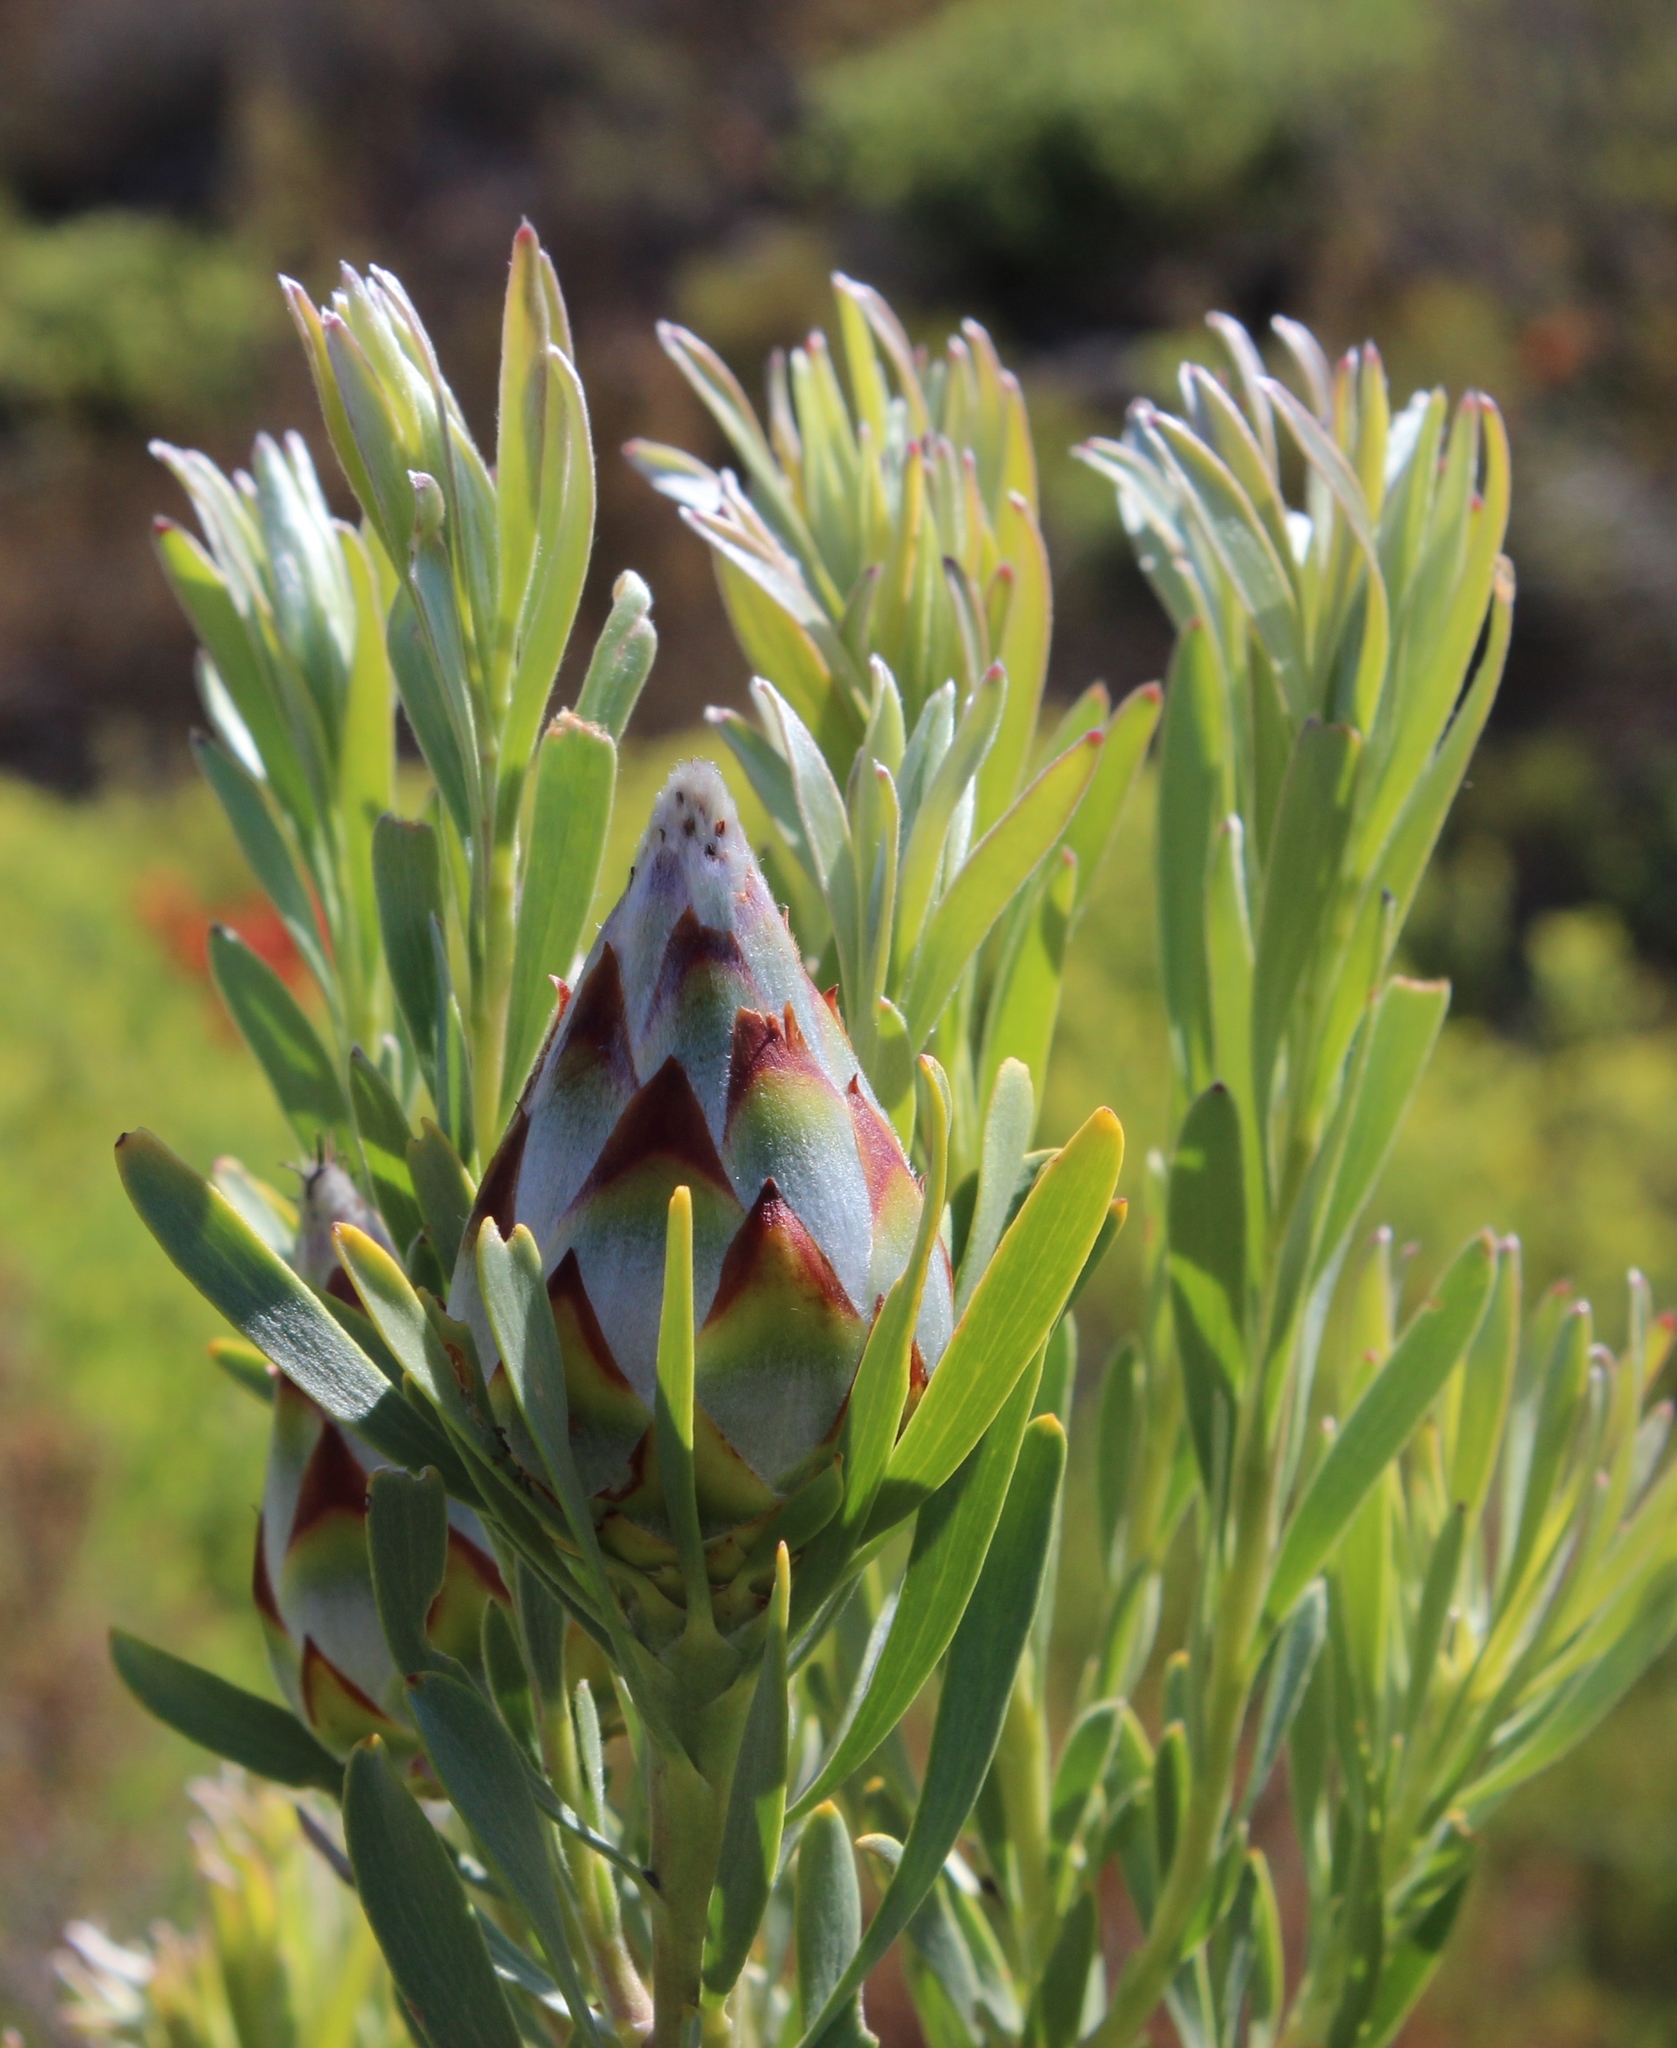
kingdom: Plantae
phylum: Tracheophyta
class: Magnoliopsida
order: Proteales
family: Proteaceae
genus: Leucadendron
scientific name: Leucadendron rubrum
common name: Spinning top
